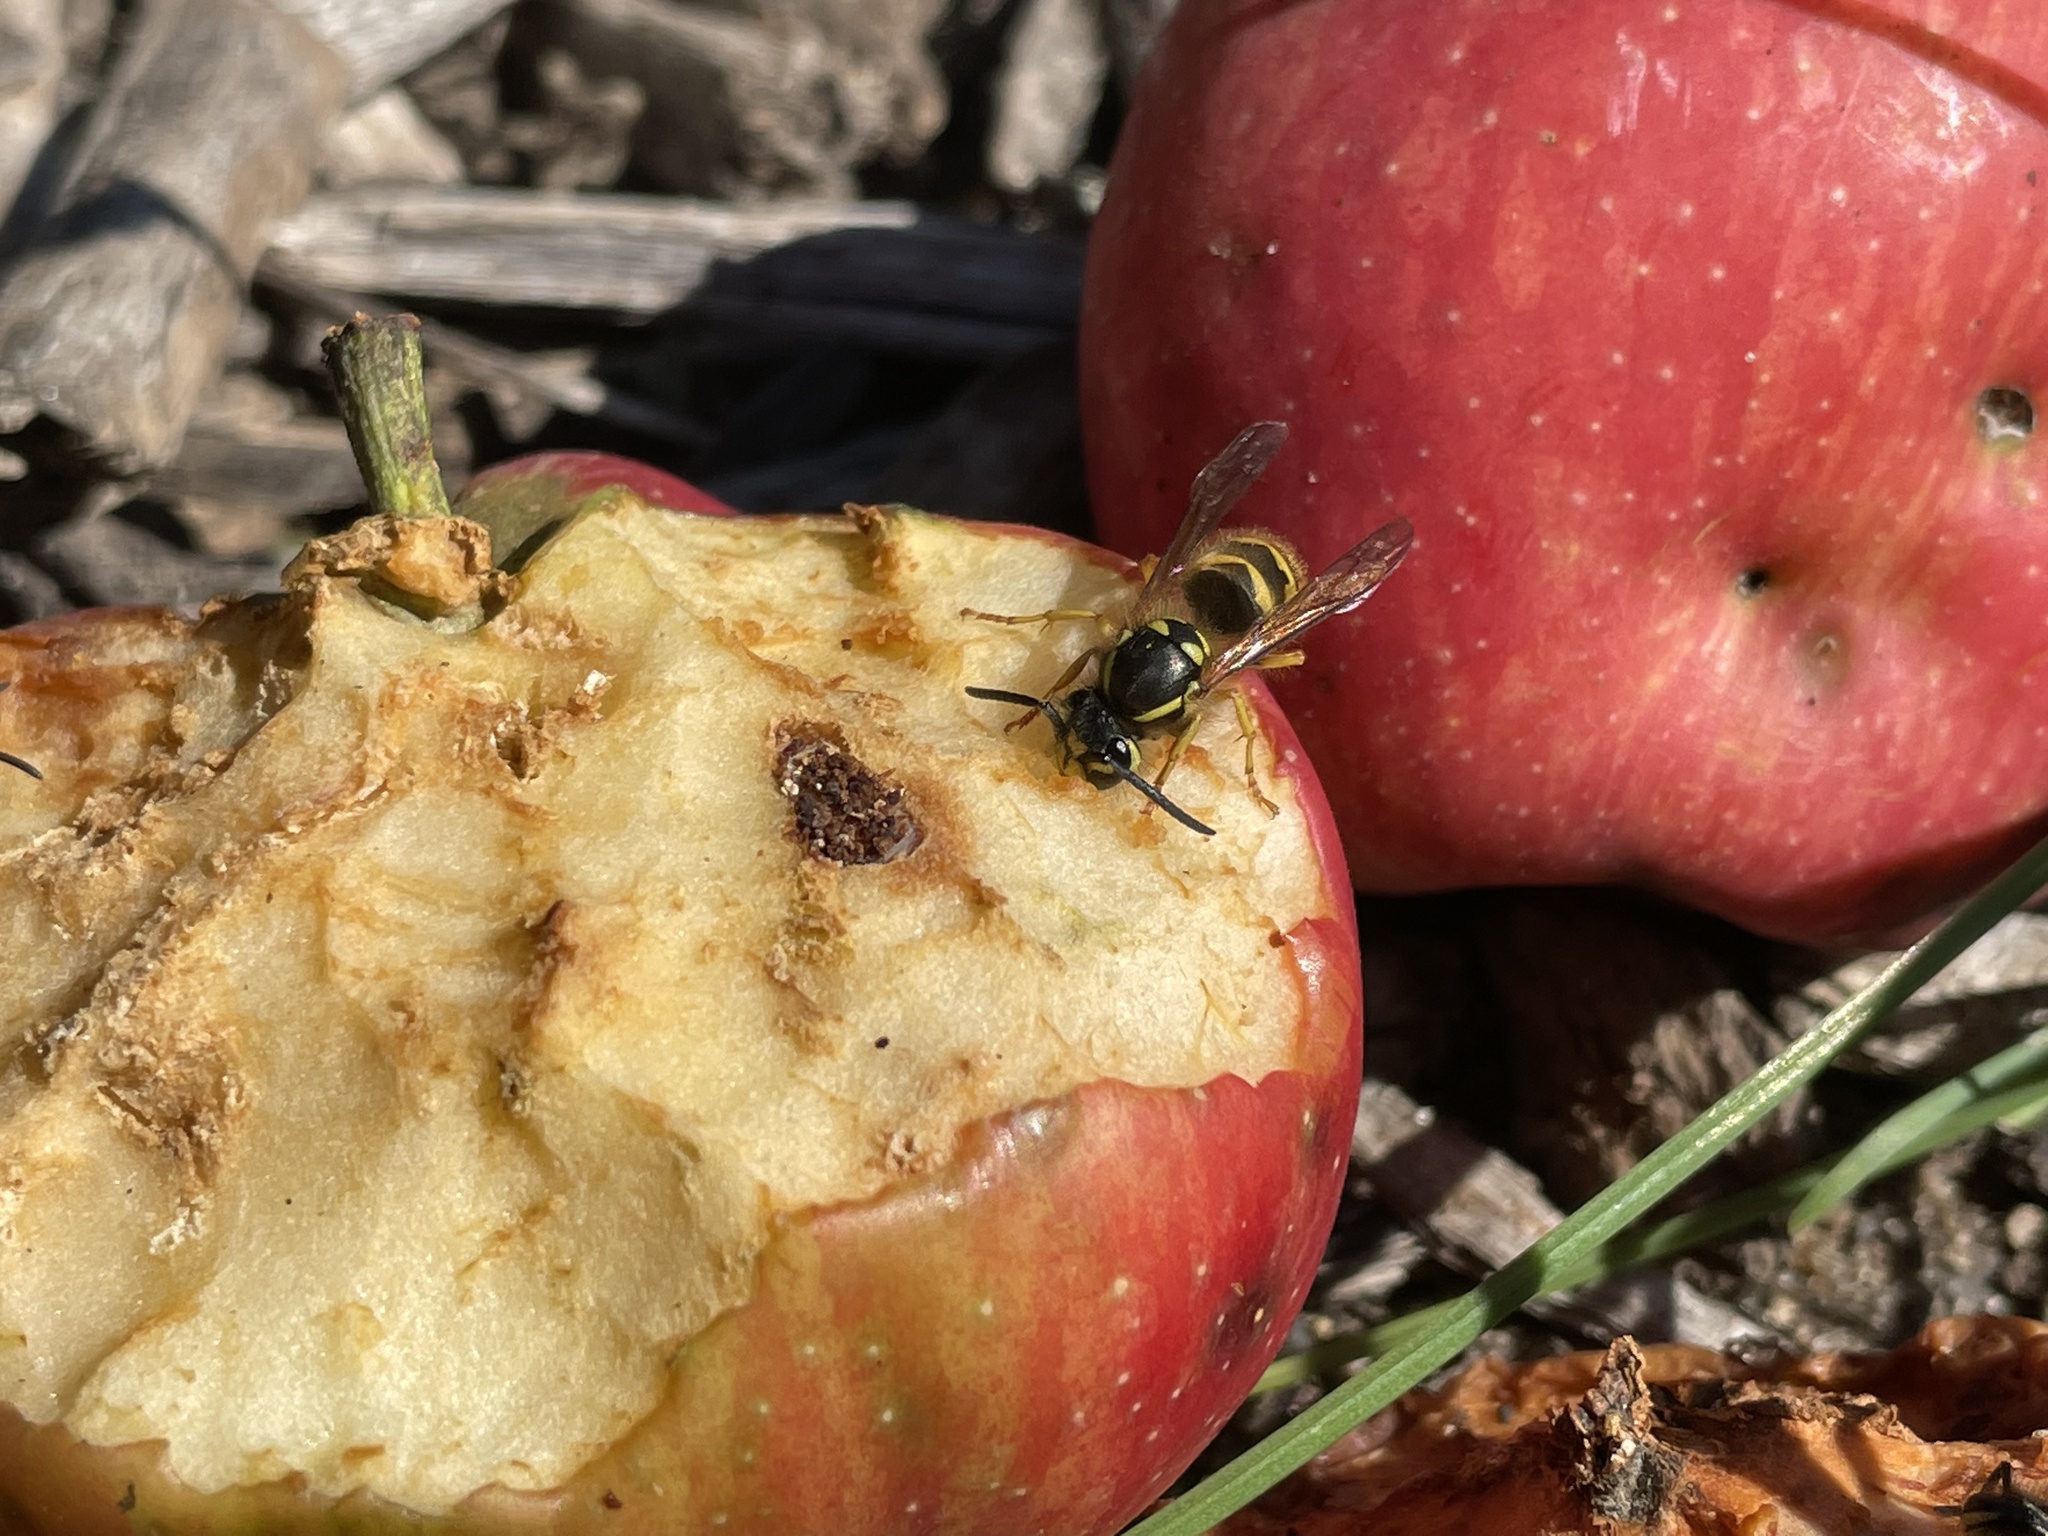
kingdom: Animalia
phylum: Arthropoda
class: Insecta
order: Hymenoptera
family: Vespidae
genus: Vespula
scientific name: Vespula flavopilosa
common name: Downy yellowjacket
